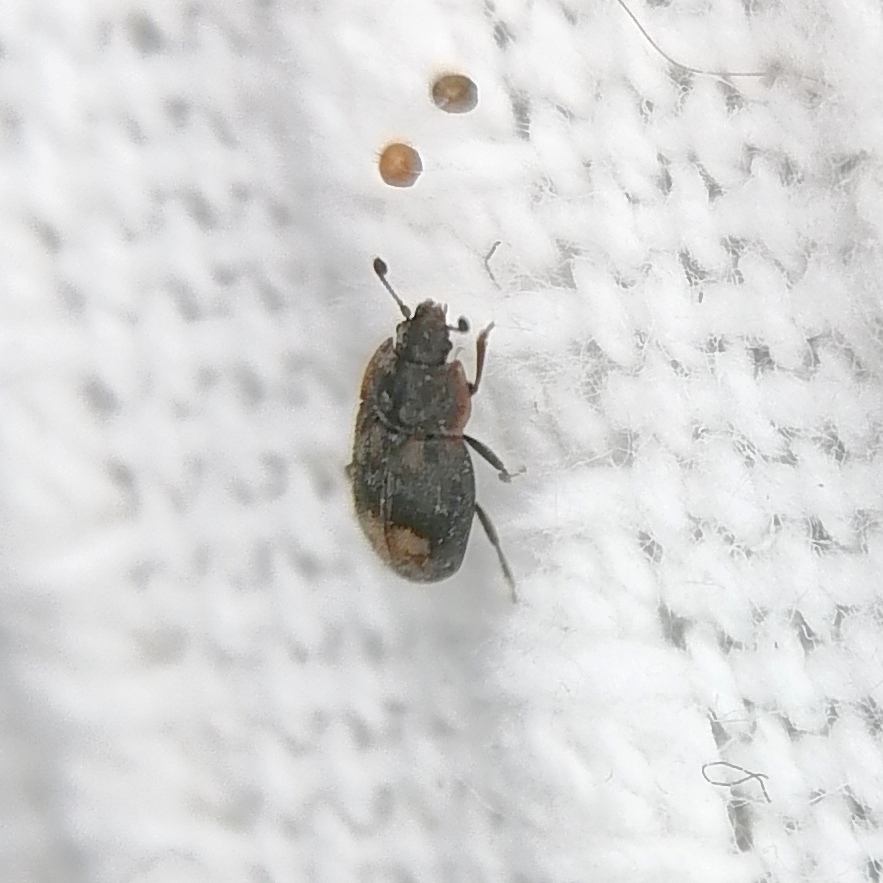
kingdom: Animalia
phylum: Arthropoda
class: Insecta
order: Coleoptera
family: Nitidulidae
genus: Omosita
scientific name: Omosita colon
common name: Sap-feeding beetle
